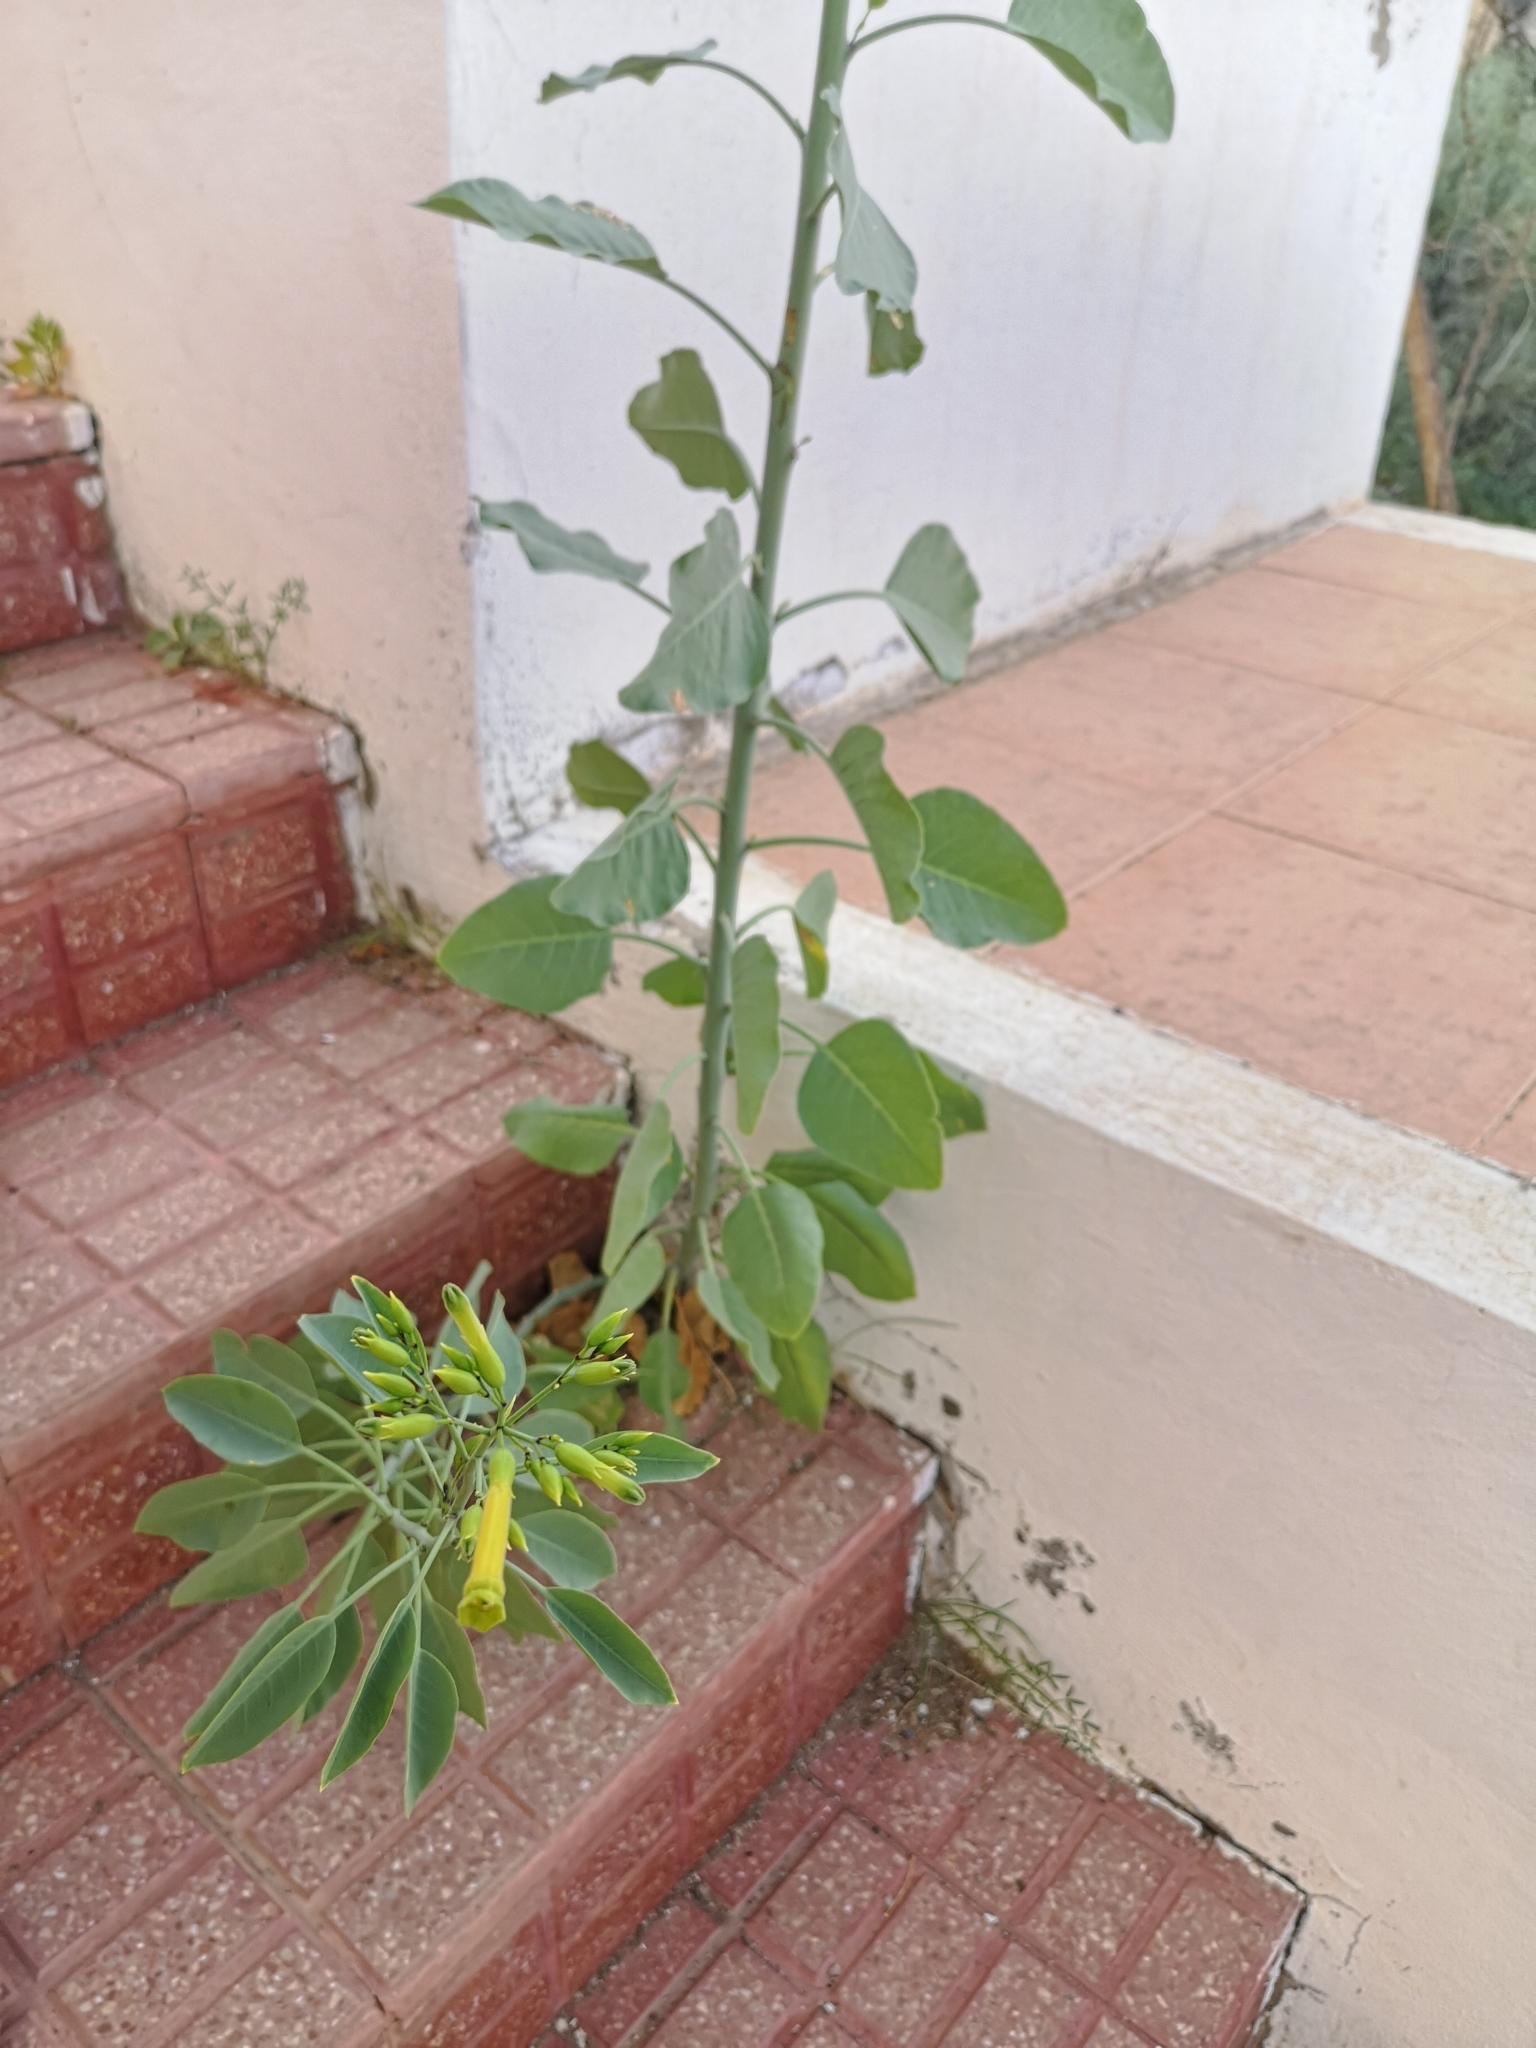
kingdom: Plantae
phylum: Tracheophyta
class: Magnoliopsida
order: Solanales
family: Solanaceae
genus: Nicotiana
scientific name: Nicotiana glauca
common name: Tree tobacco
